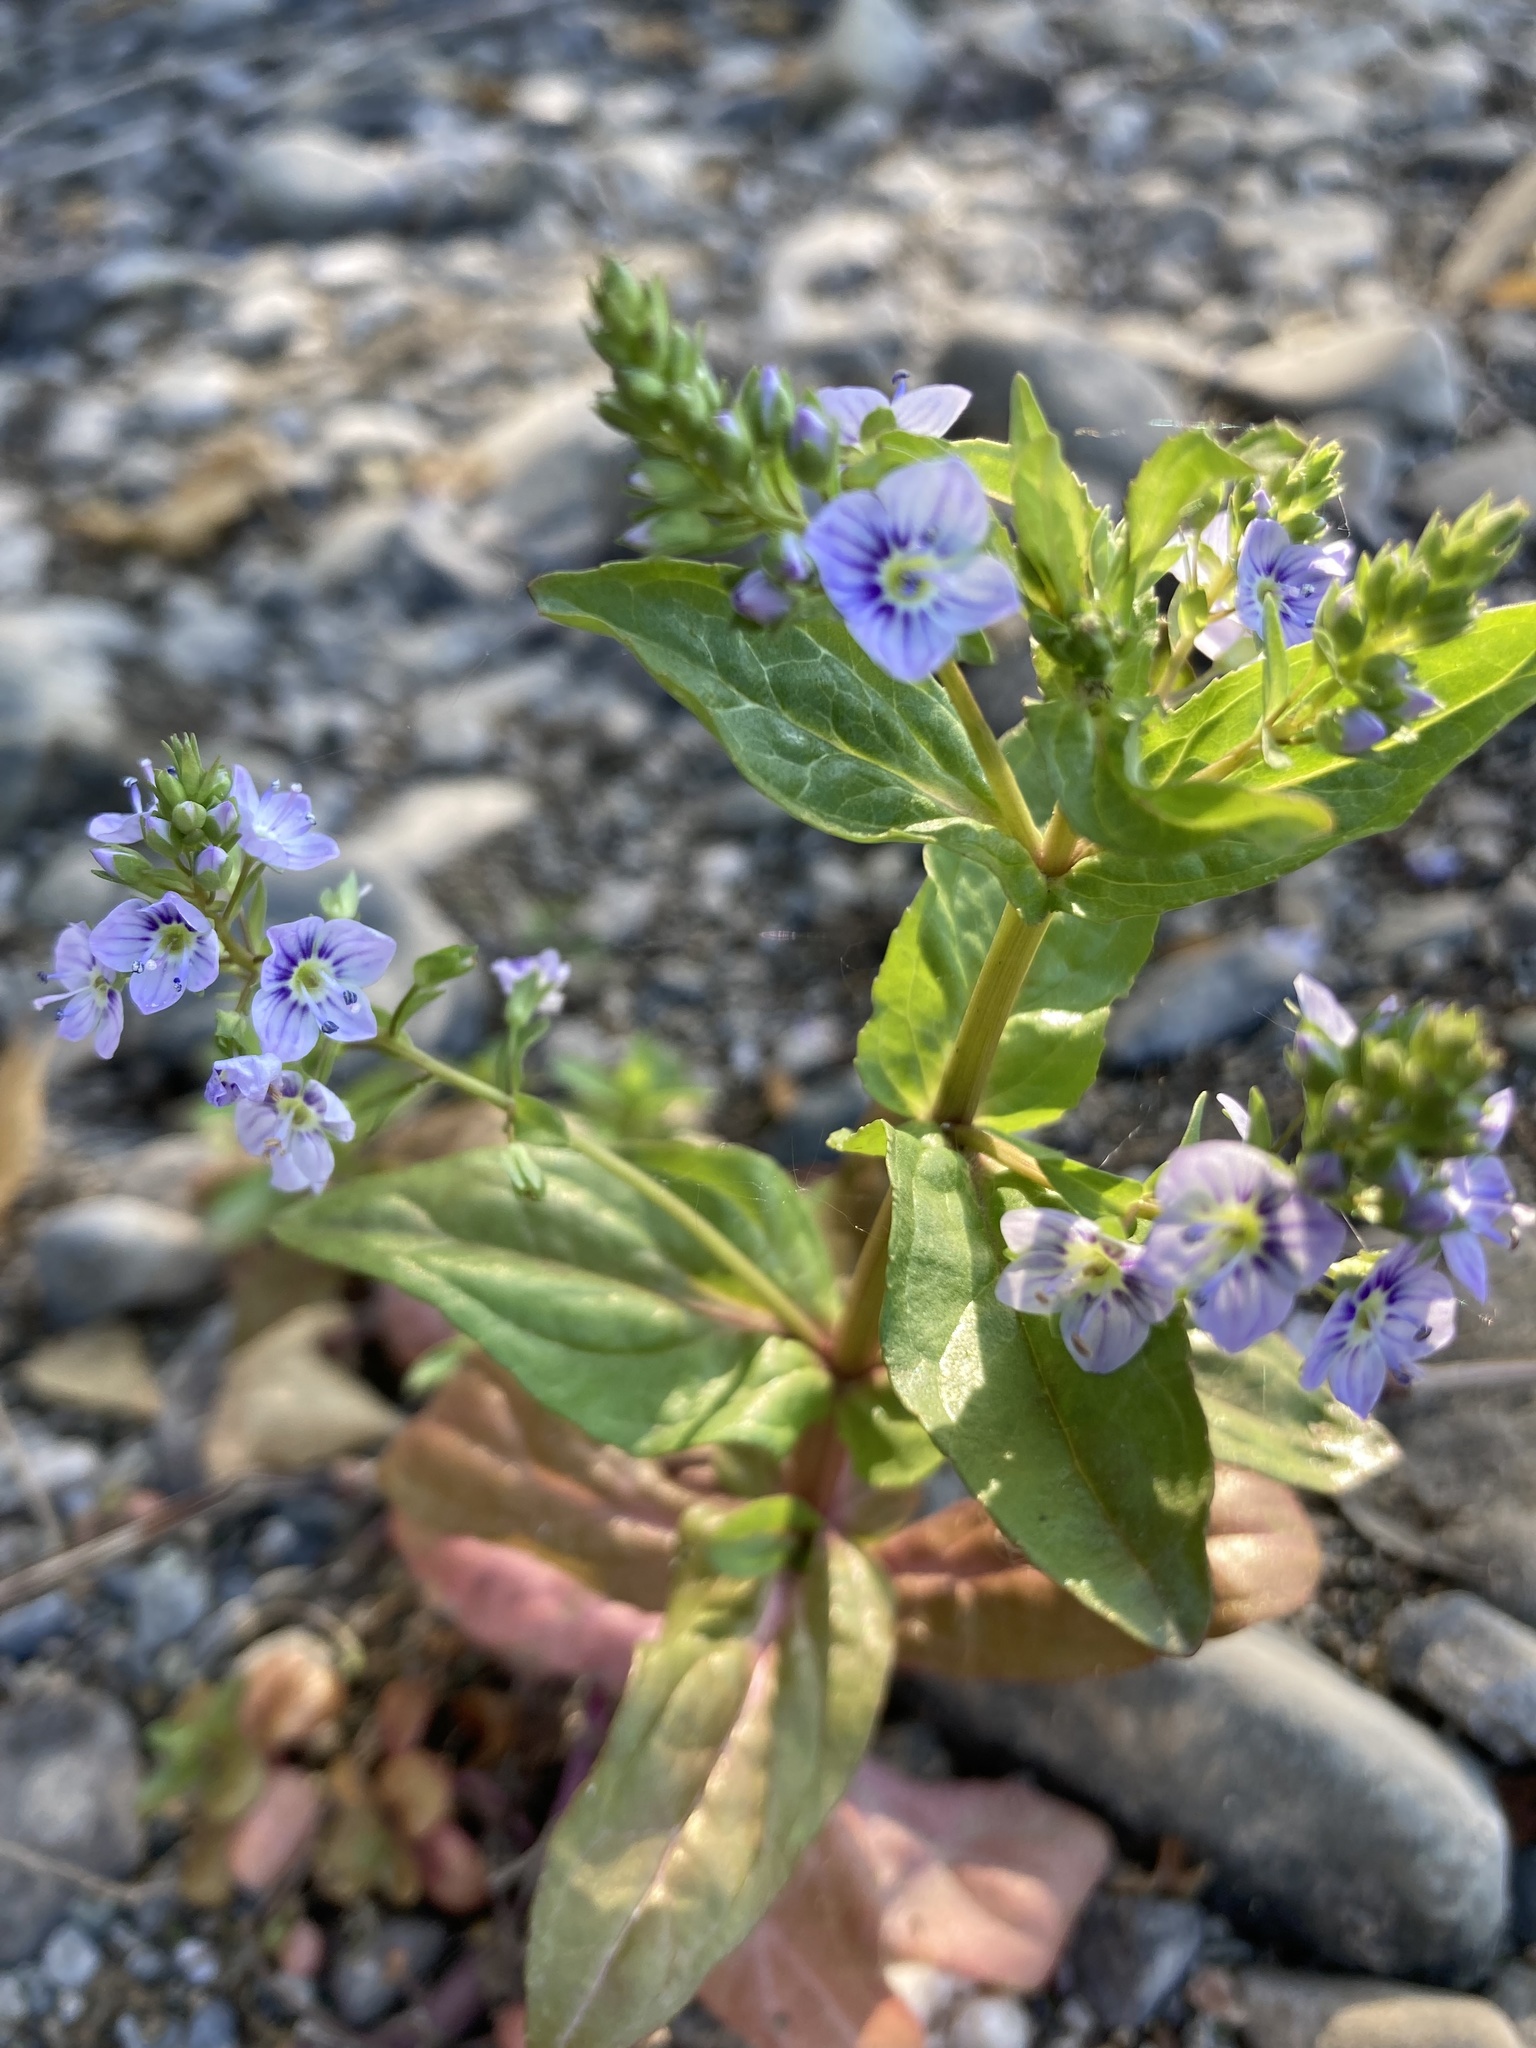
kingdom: Plantae
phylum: Tracheophyta
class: Magnoliopsida
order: Lamiales
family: Plantaginaceae
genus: Veronica
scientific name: Veronica anagallis-aquatica
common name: Water speedwell
